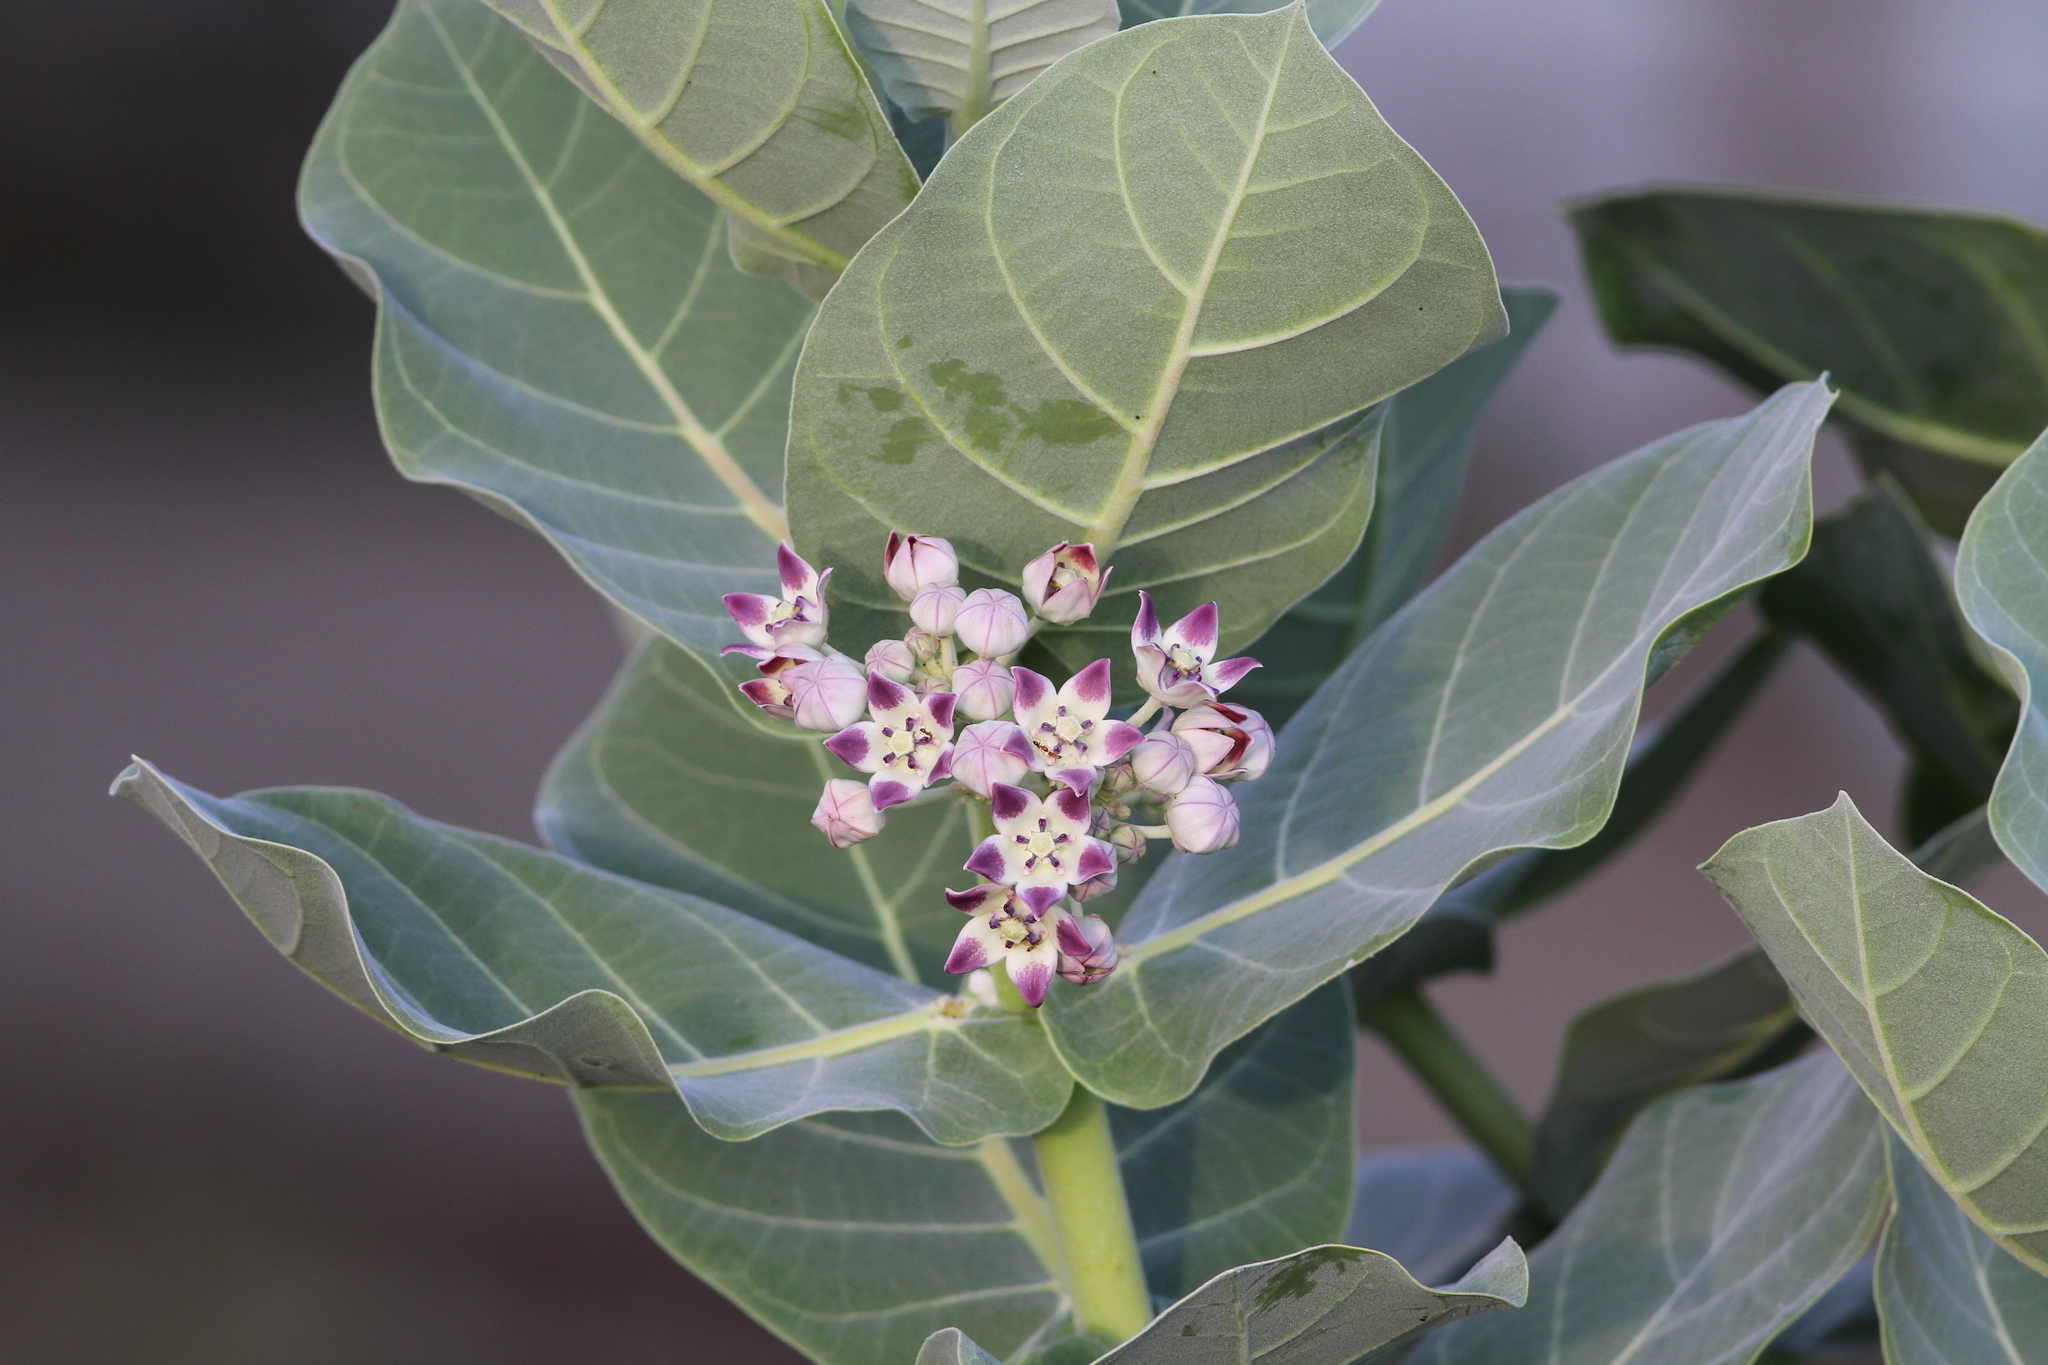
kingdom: Plantae
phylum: Tracheophyta
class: Magnoliopsida
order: Gentianales
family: Apocynaceae
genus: Calotropis
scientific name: Calotropis procera
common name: Roostertree
